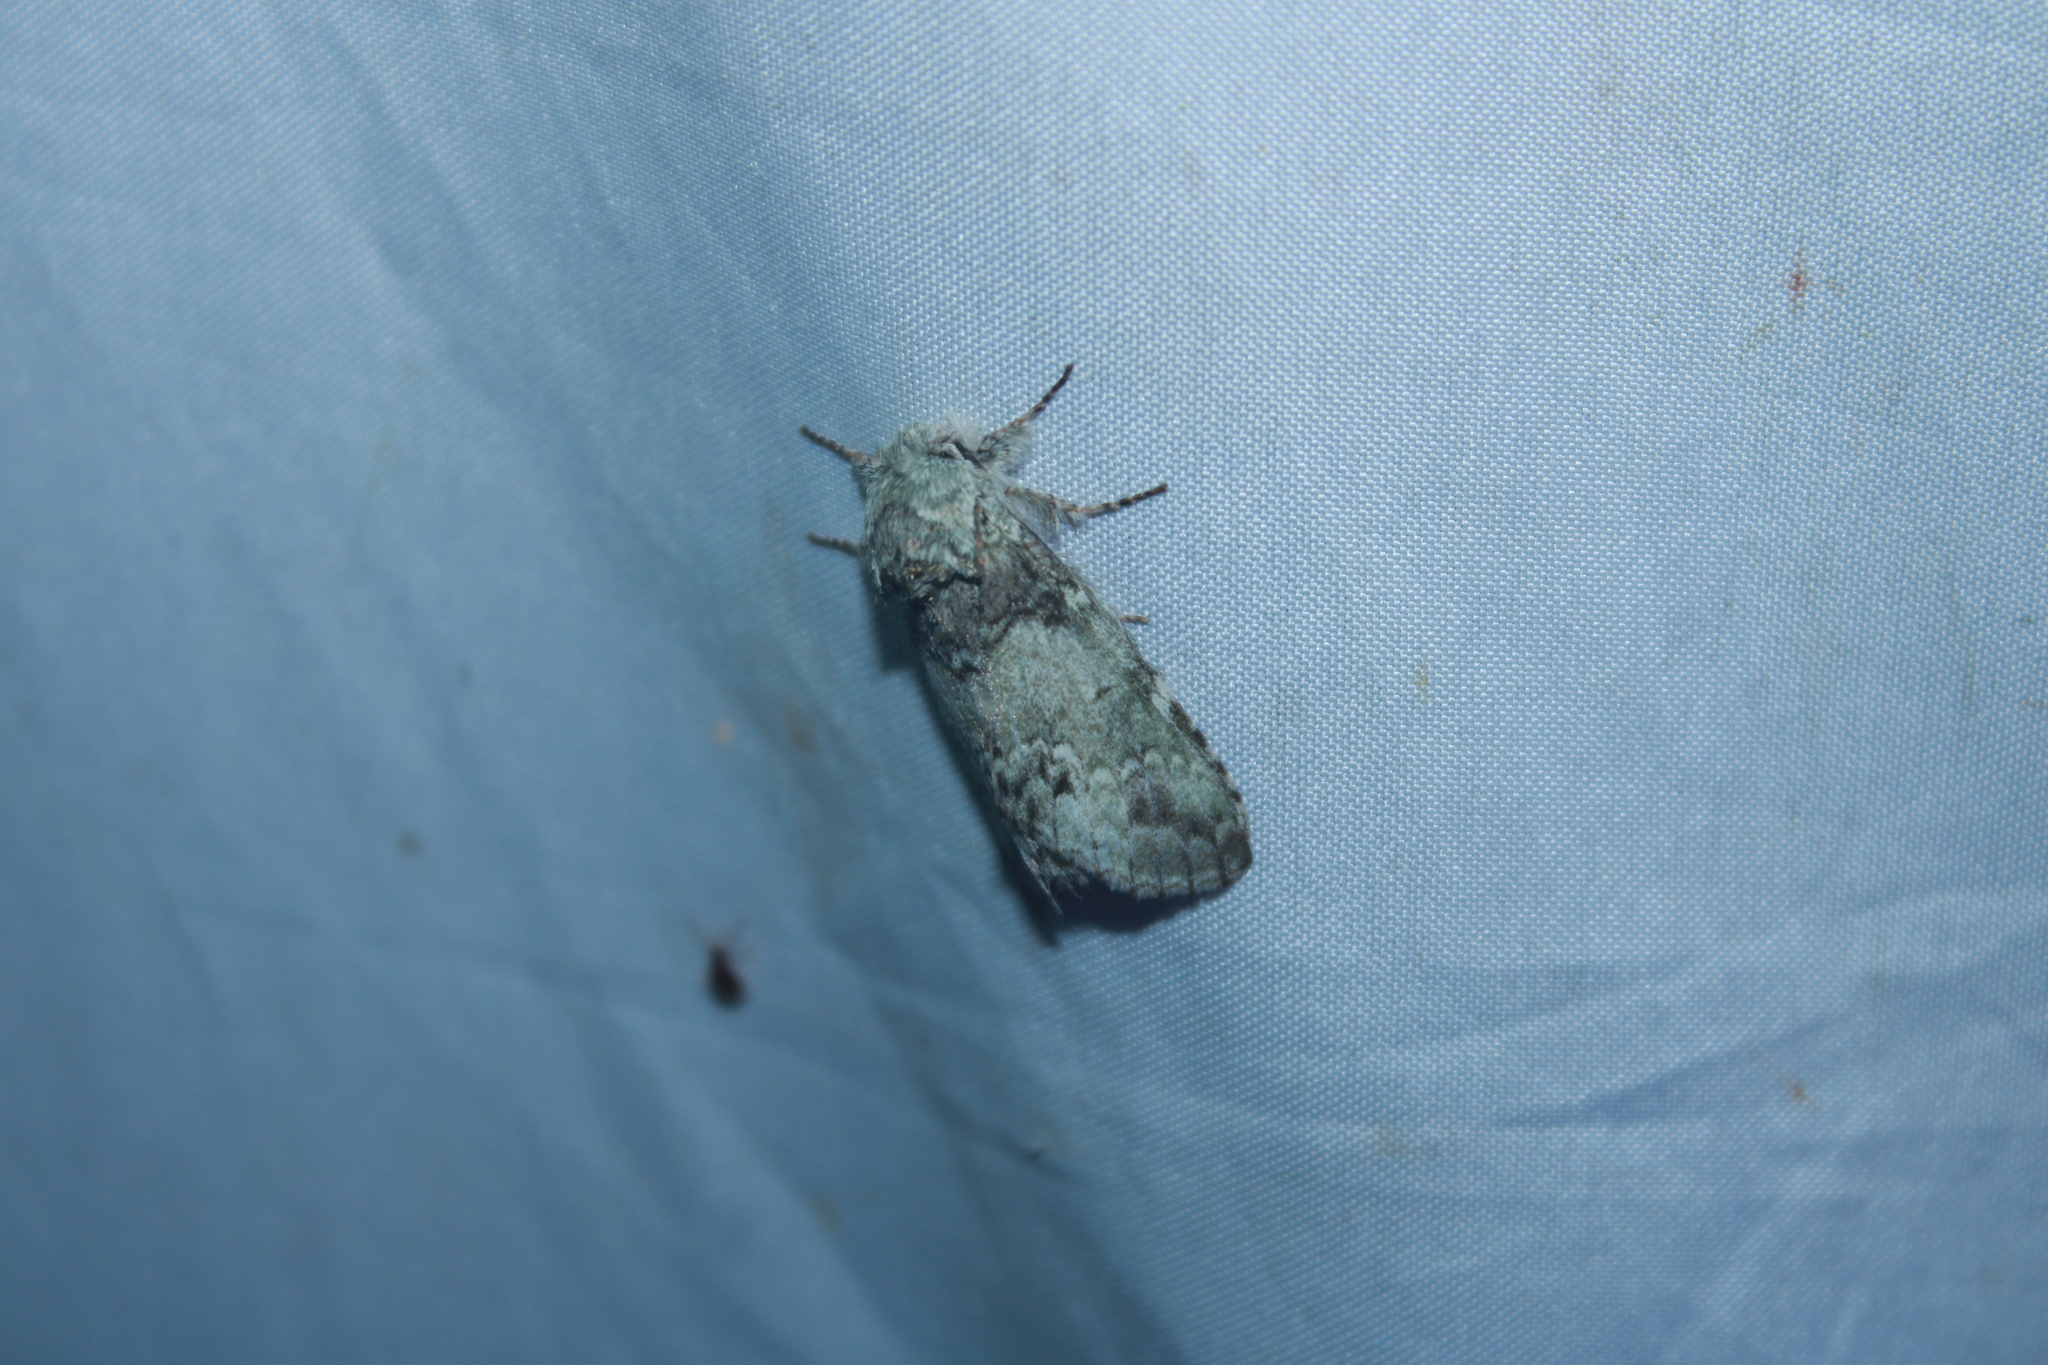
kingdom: Animalia
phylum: Arthropoda
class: Insecta
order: Lepidoptera
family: Notodontidae
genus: Macrurocampa
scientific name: Macrurocampa marthesia
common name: Mottled prominent
